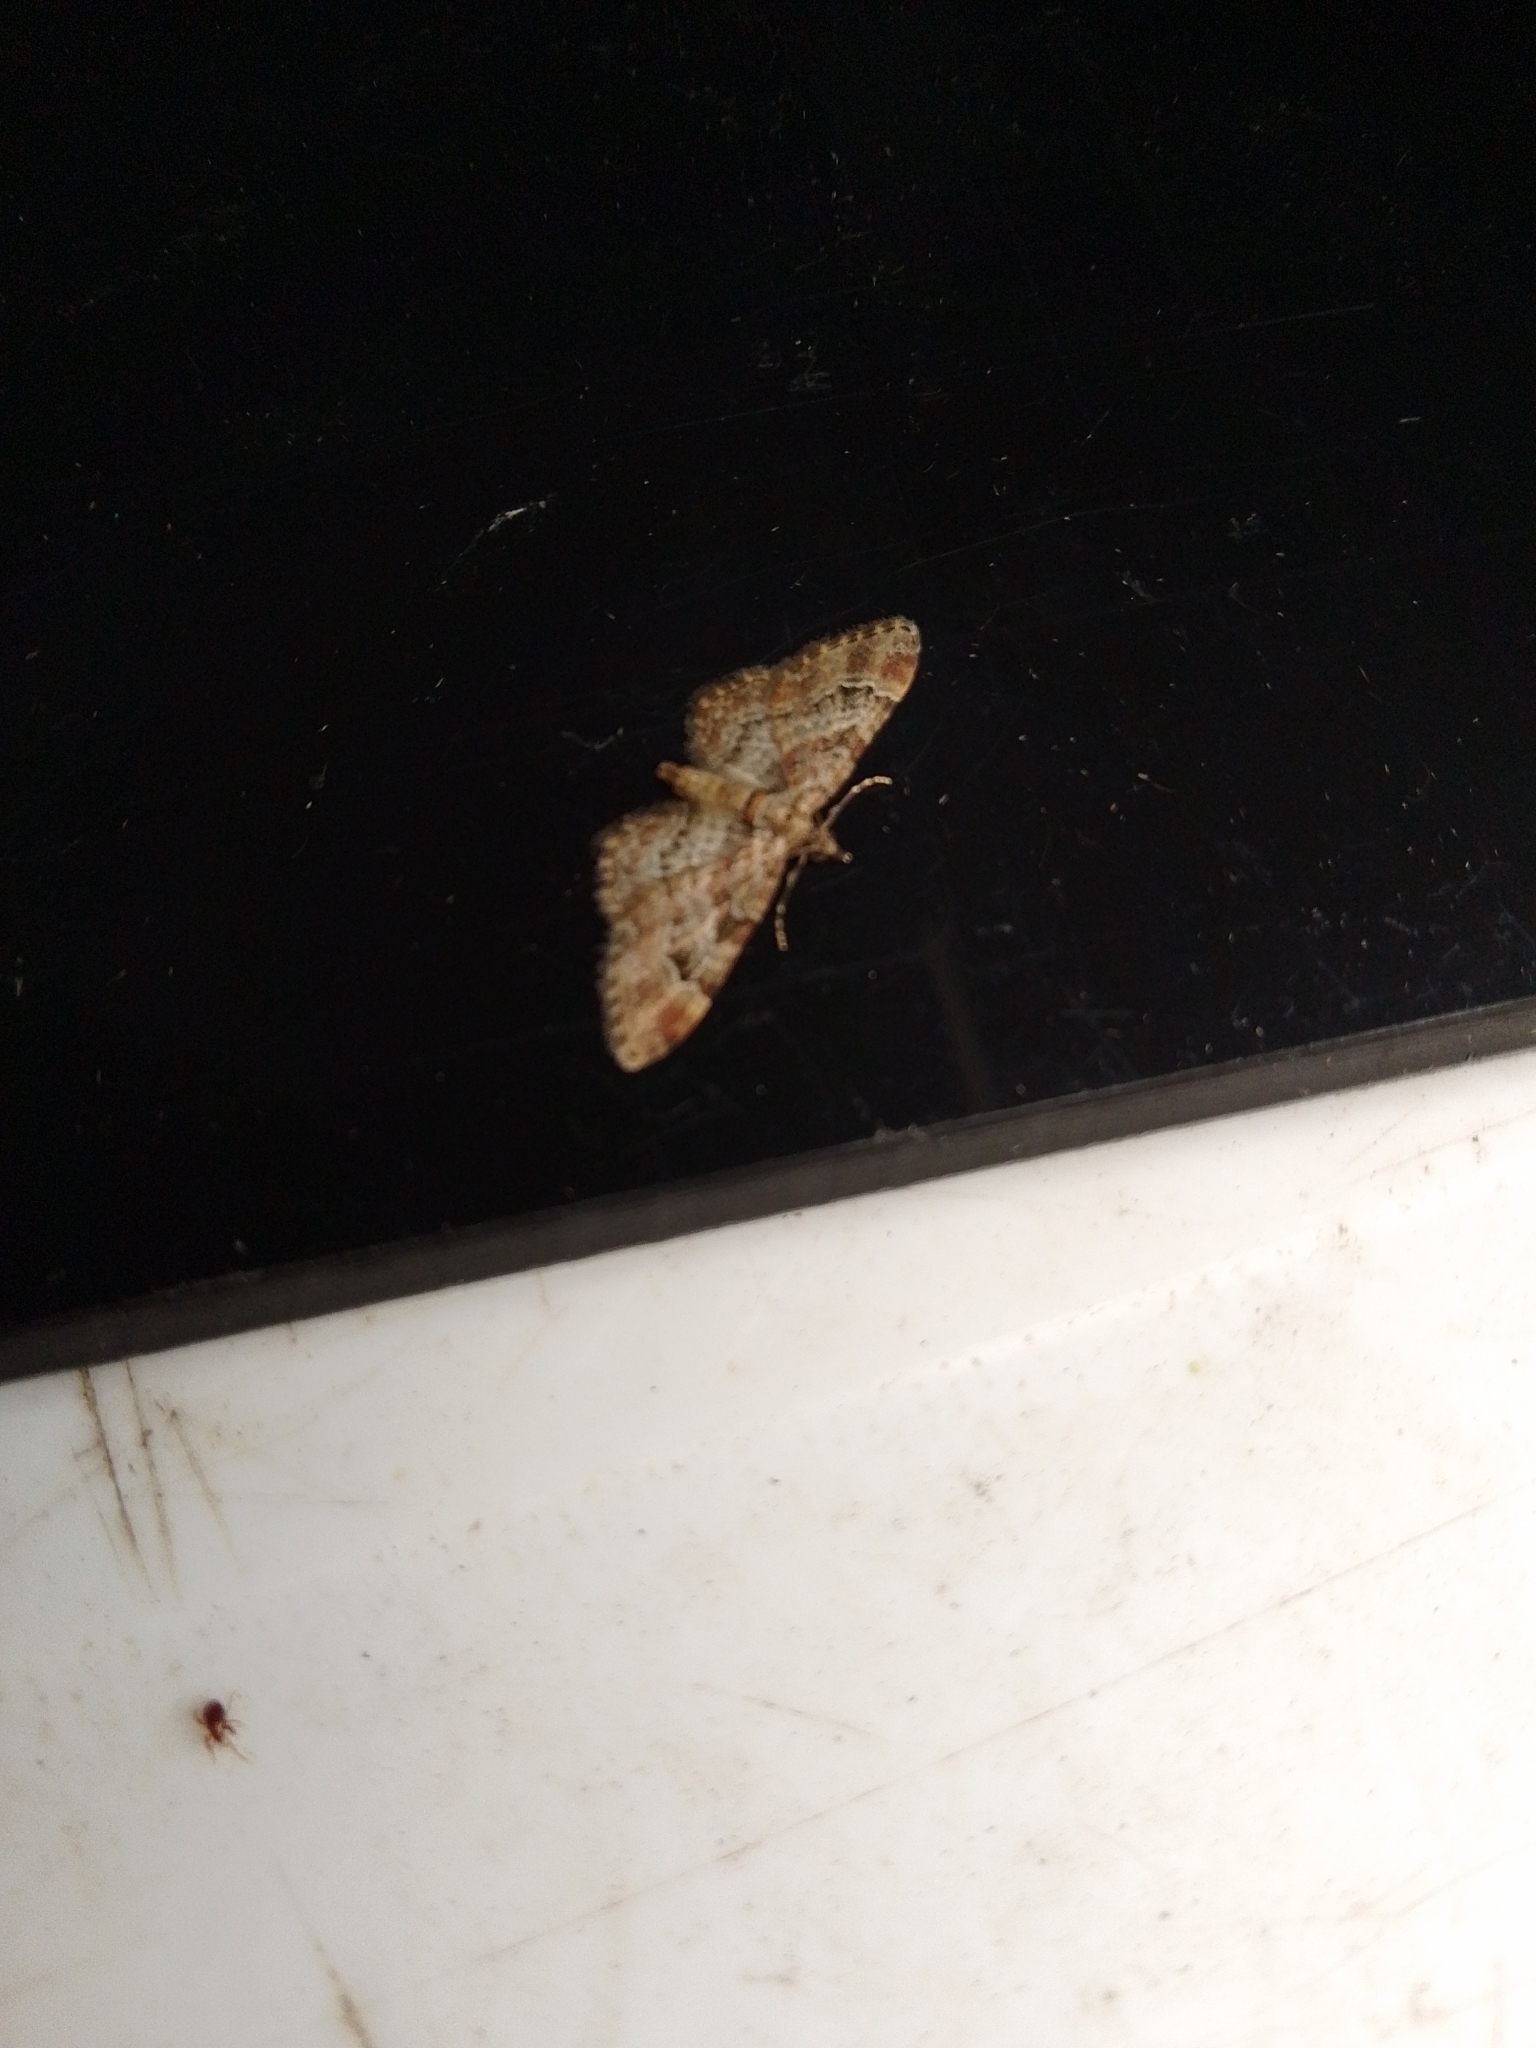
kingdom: Animalia
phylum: Arthropoda
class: Insecta
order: Lepidoptera
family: Geometridae
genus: Gymnoscelis
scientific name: Gymnoscelis rufifasciata
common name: Double-striped pug
